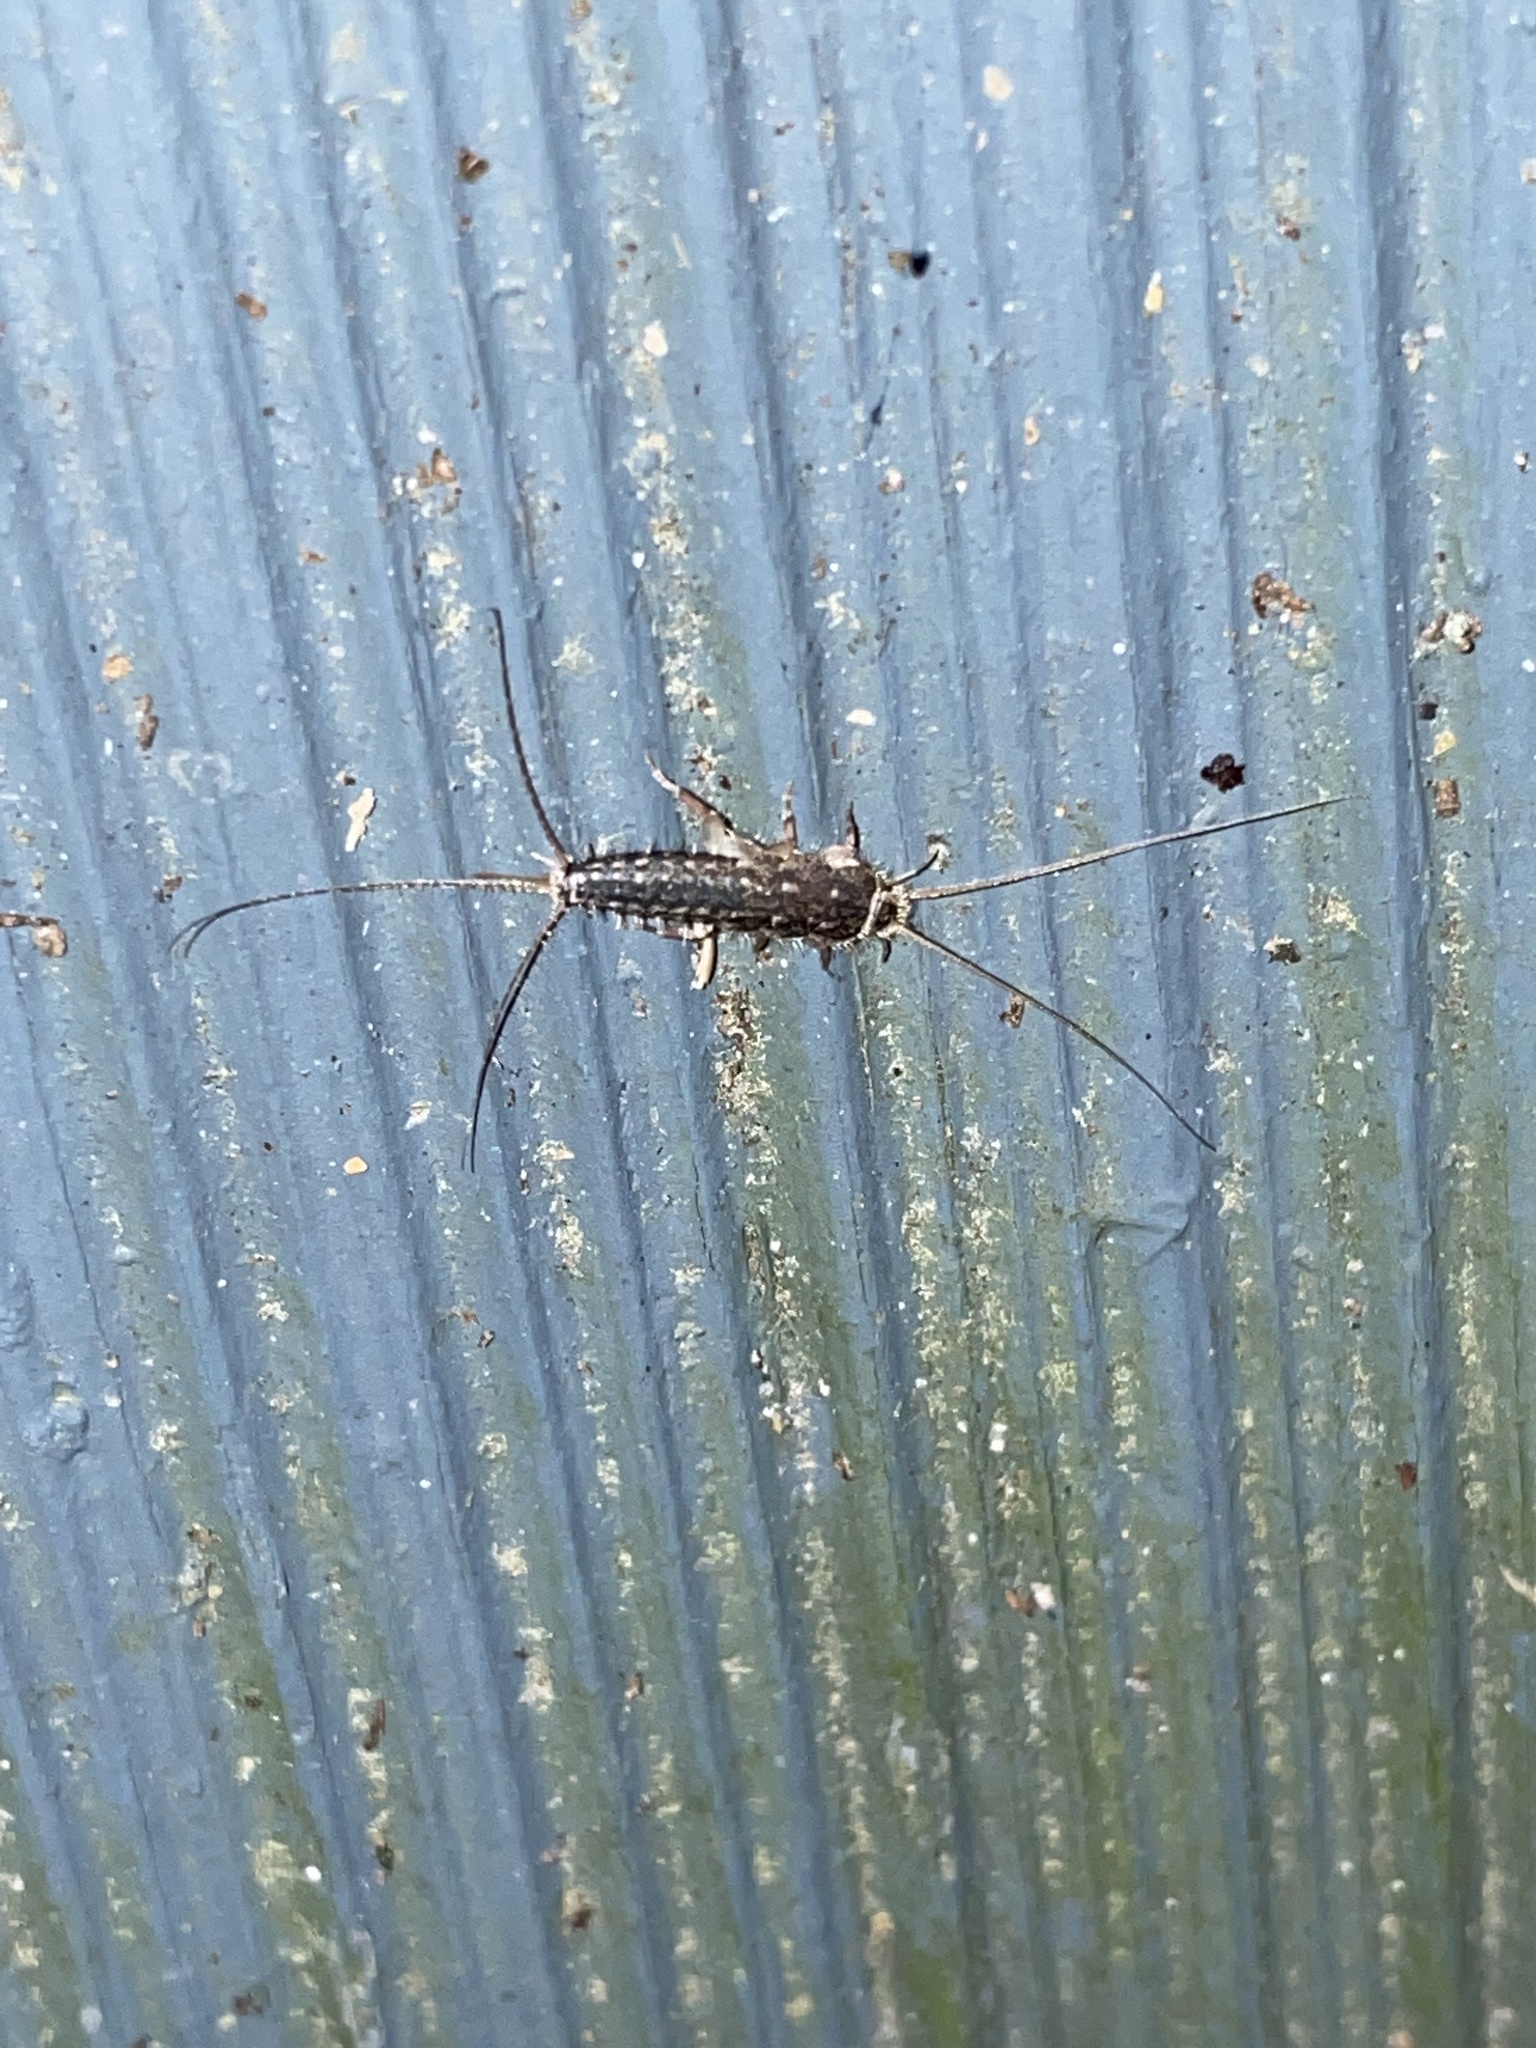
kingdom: Animalia
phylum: Arthropoda
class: Insecta
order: Zygentoma
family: Lepismatidae
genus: Ctenolepisma
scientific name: Ctenolepisma lineata
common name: Four-lined silverfish
